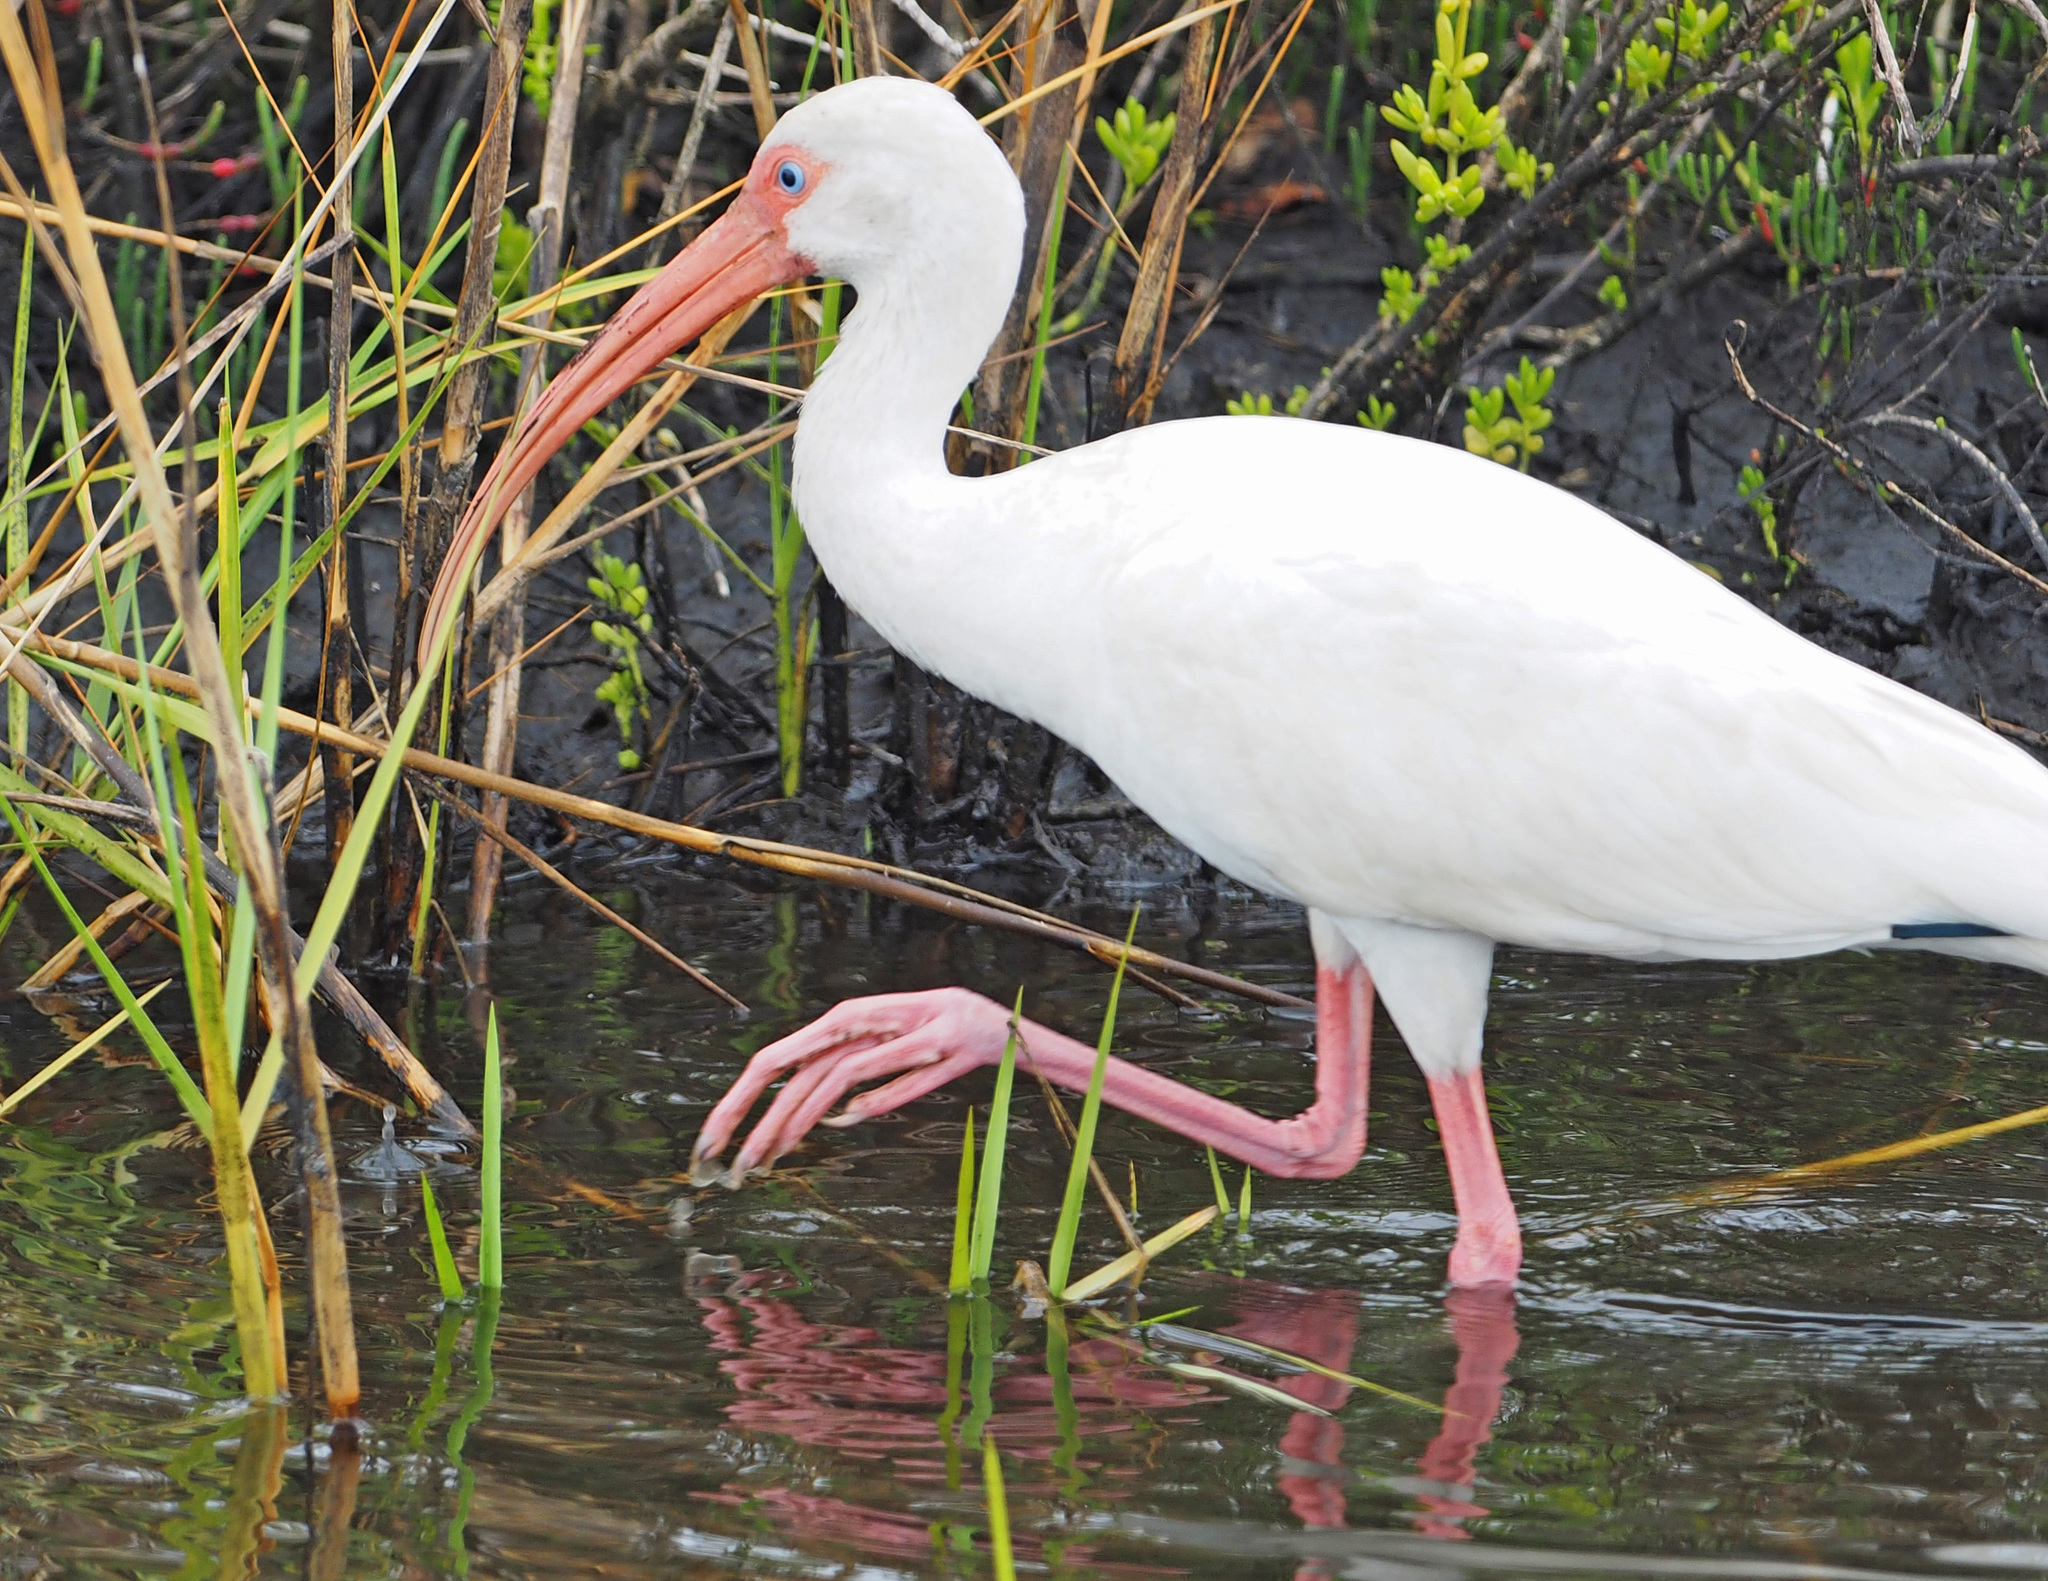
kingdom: Animalia
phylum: Chordata
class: Aves
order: Pelecaniformes
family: Threskiornithidae
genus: Eudocimus
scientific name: Eudocimus albus
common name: White ibis
